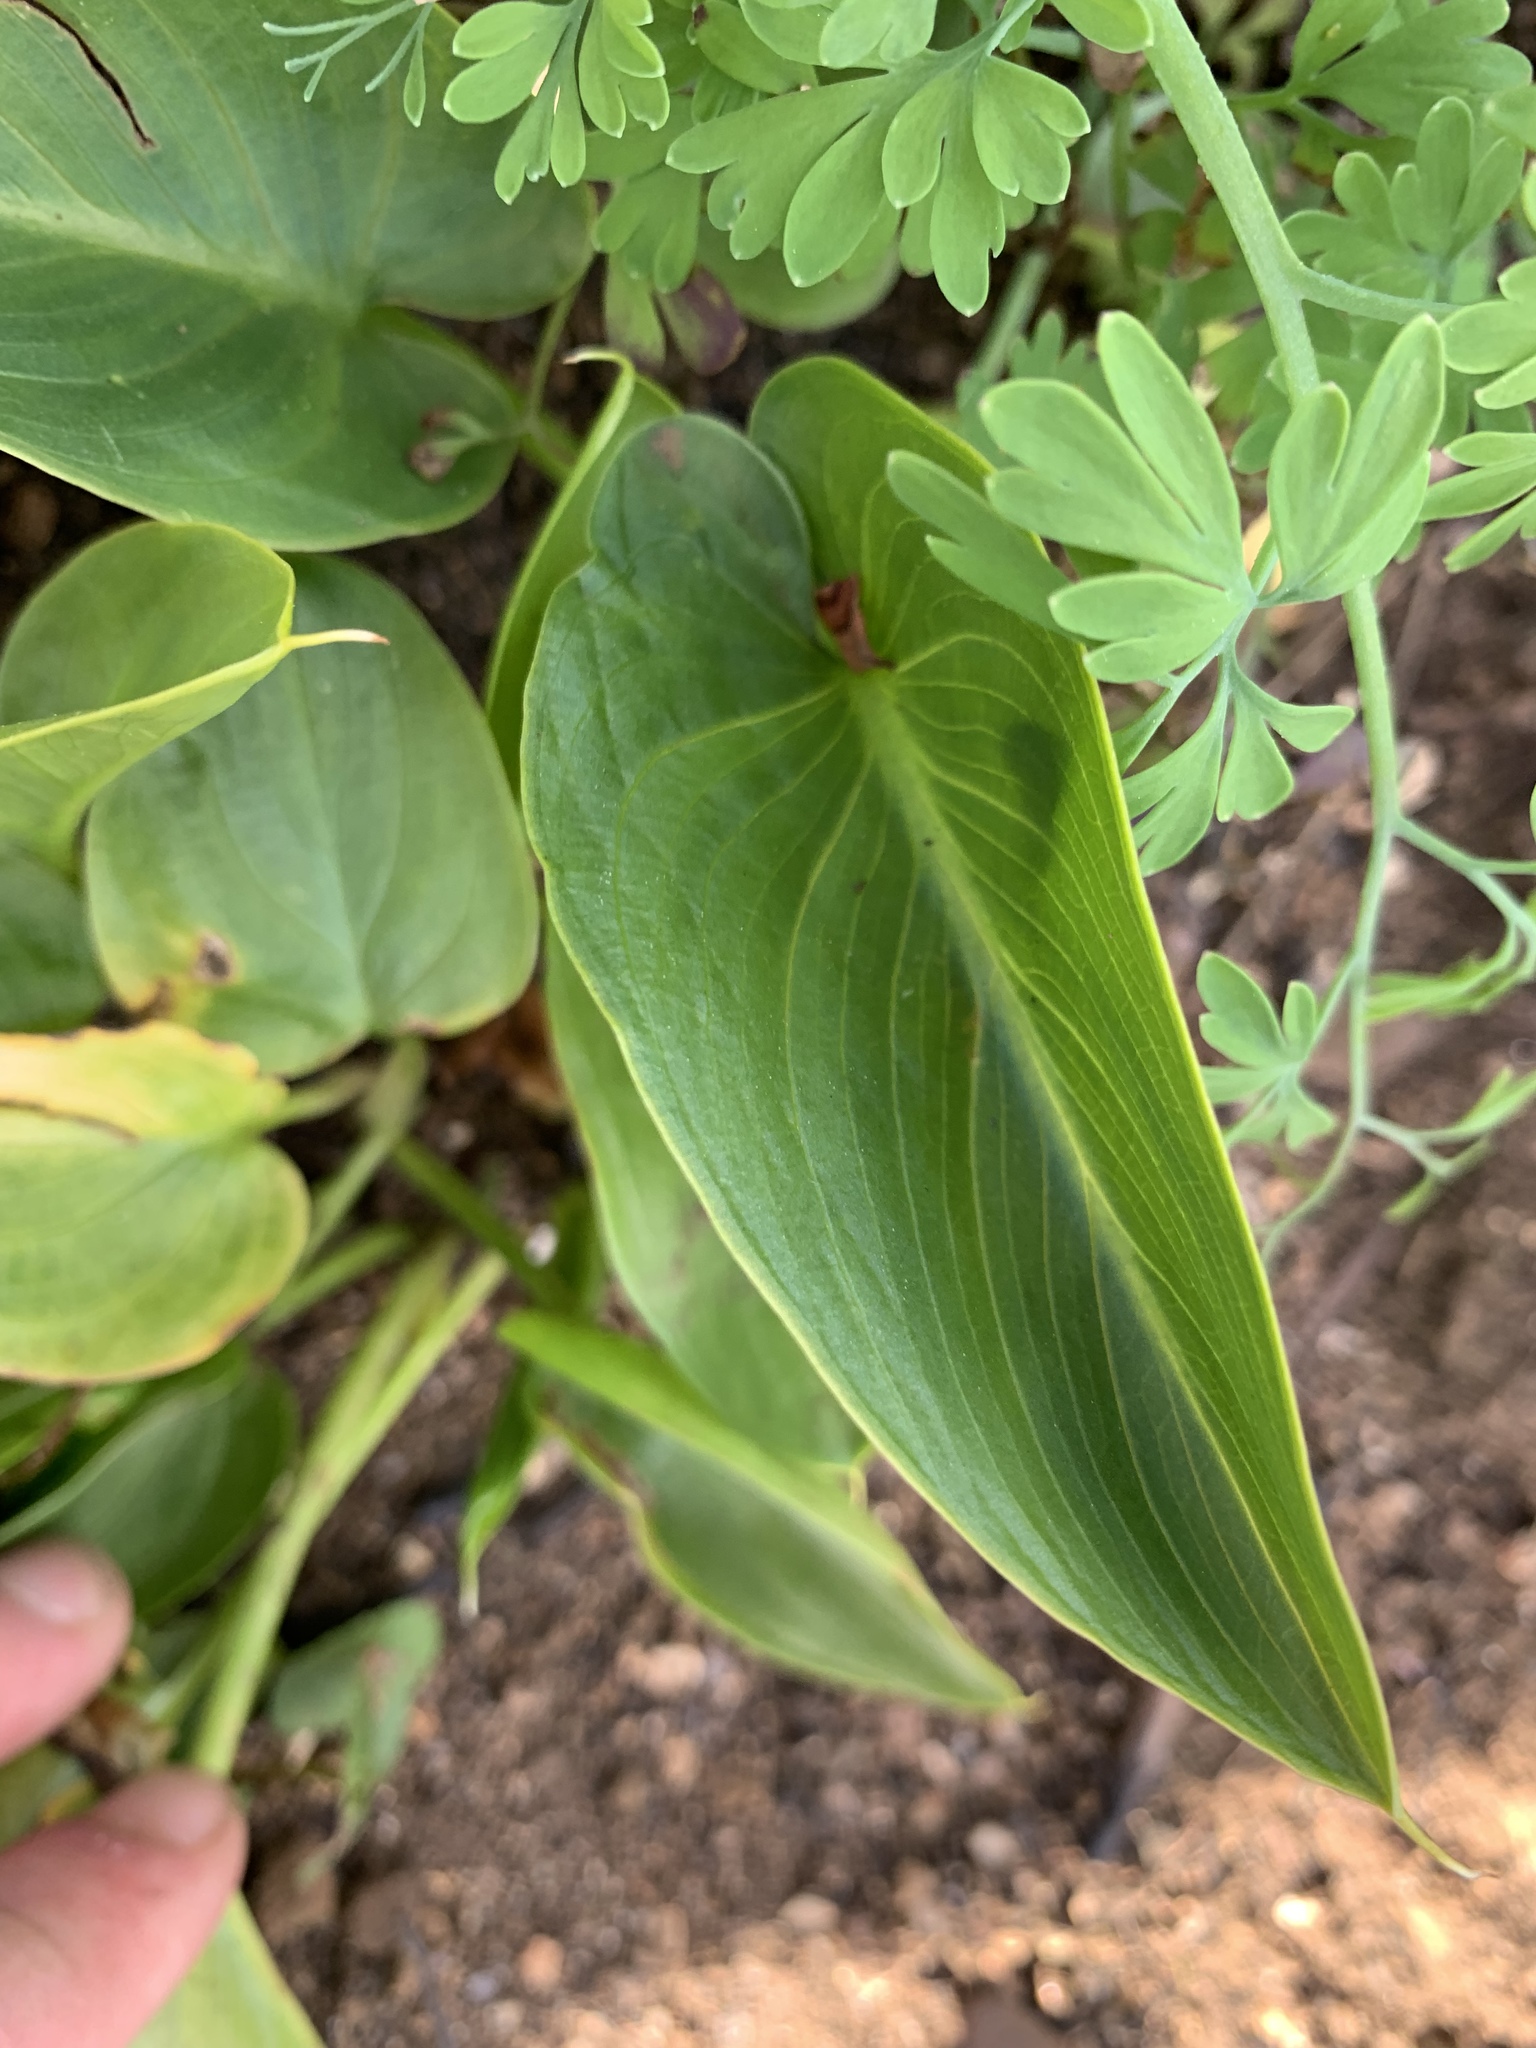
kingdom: Plantae
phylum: Tracheophyta
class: Liliopsida
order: Alismatales
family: Araceae
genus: Zantedeschia
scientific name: Zantedeschia aethiopica
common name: Altar-lily
